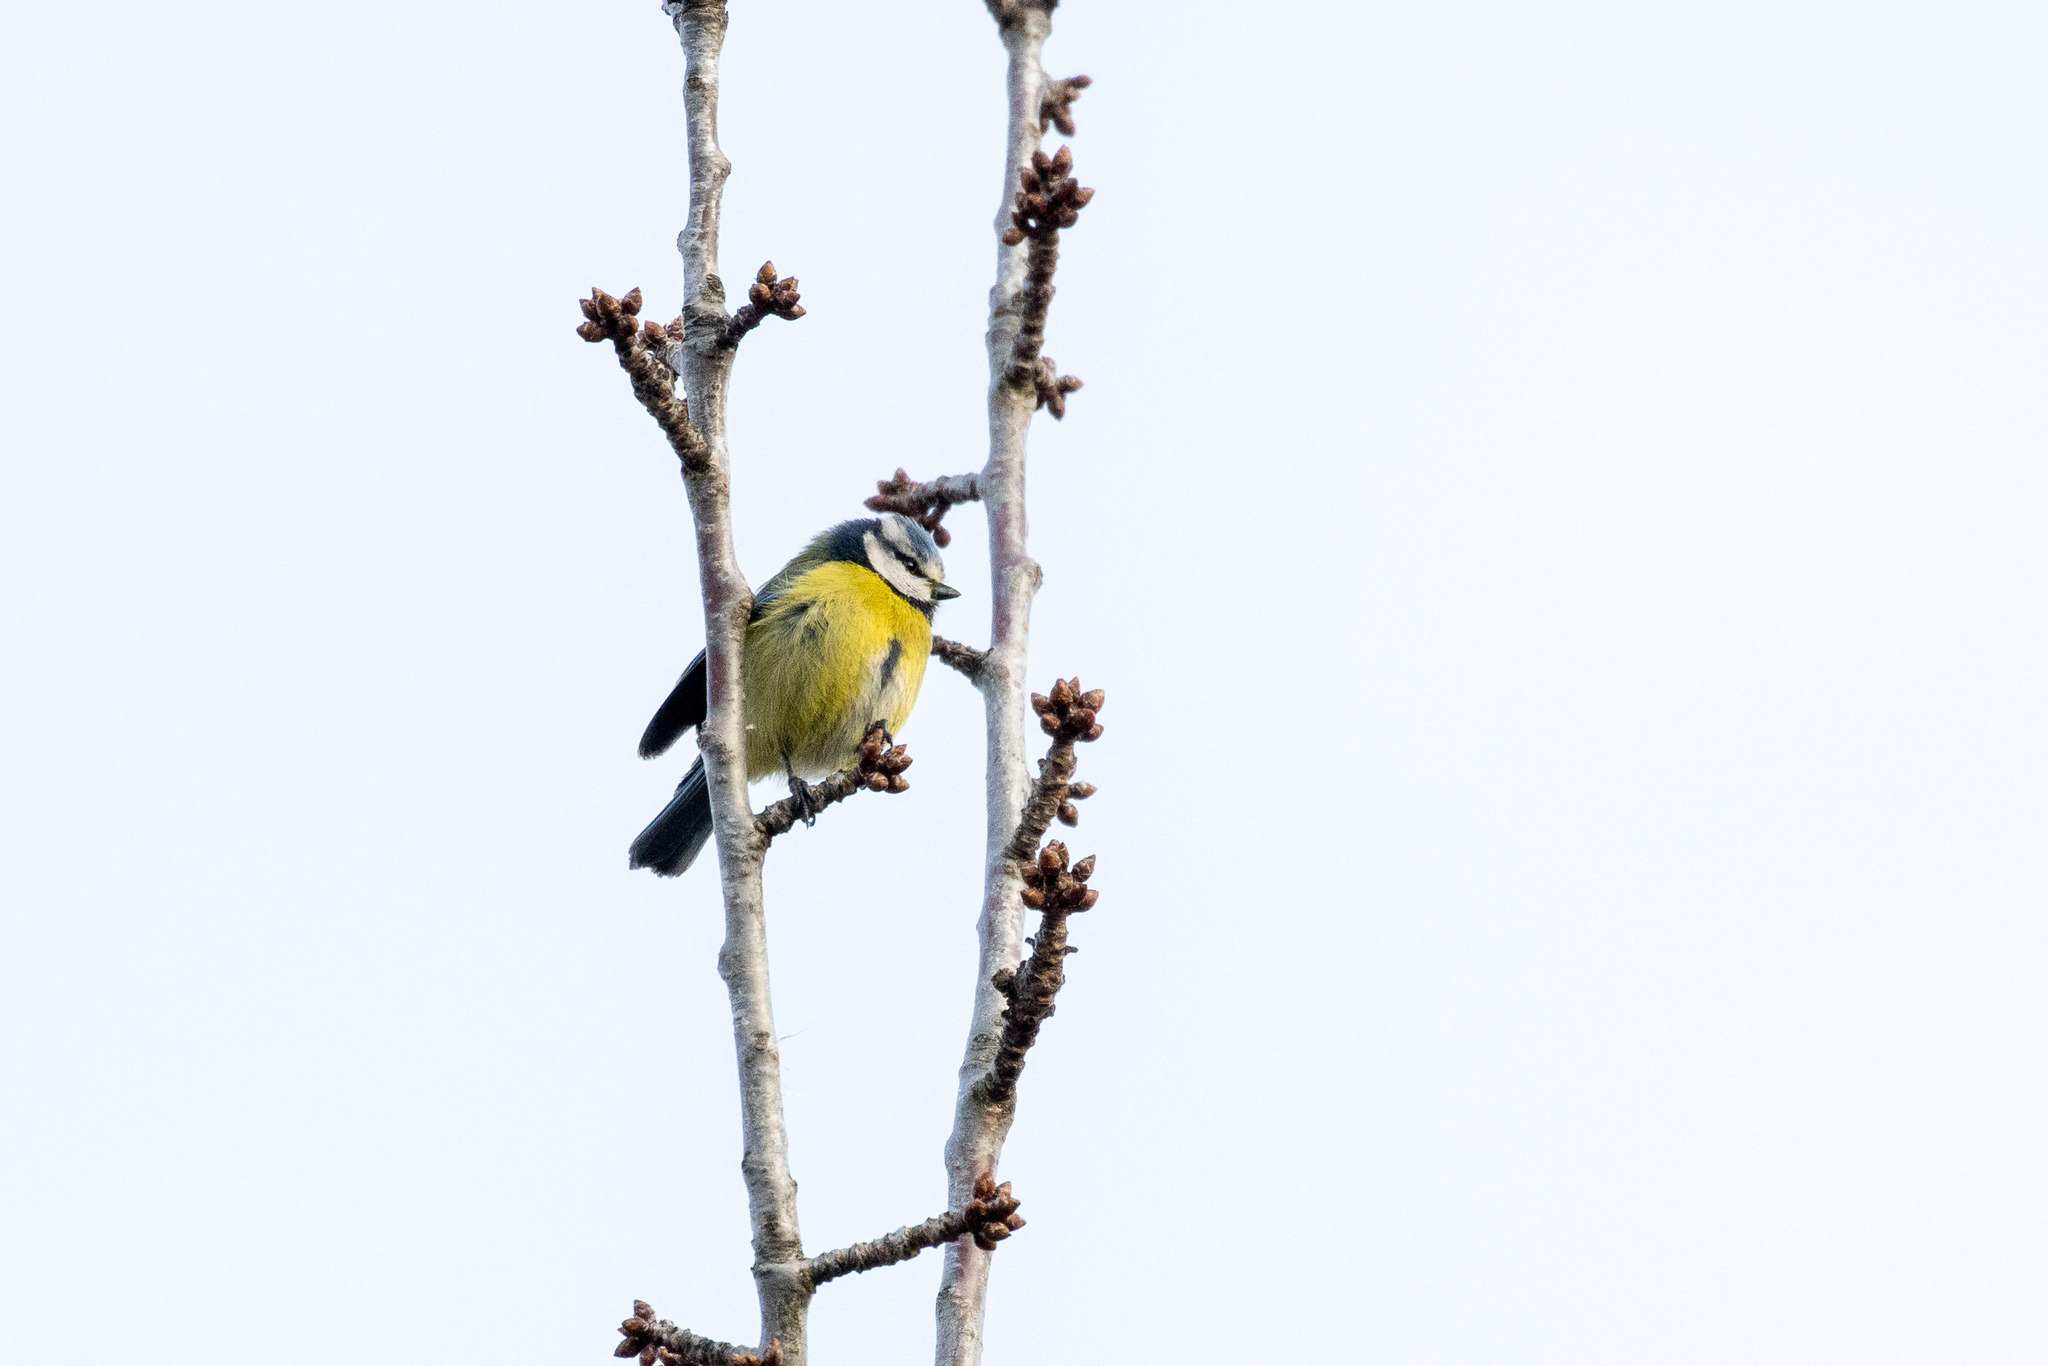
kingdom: Animalia
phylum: Chordata
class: Aves
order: Passeriformes
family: Paridae
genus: Cyanistes
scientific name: Cyanistes caeruleus
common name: Eurasian blue tit
